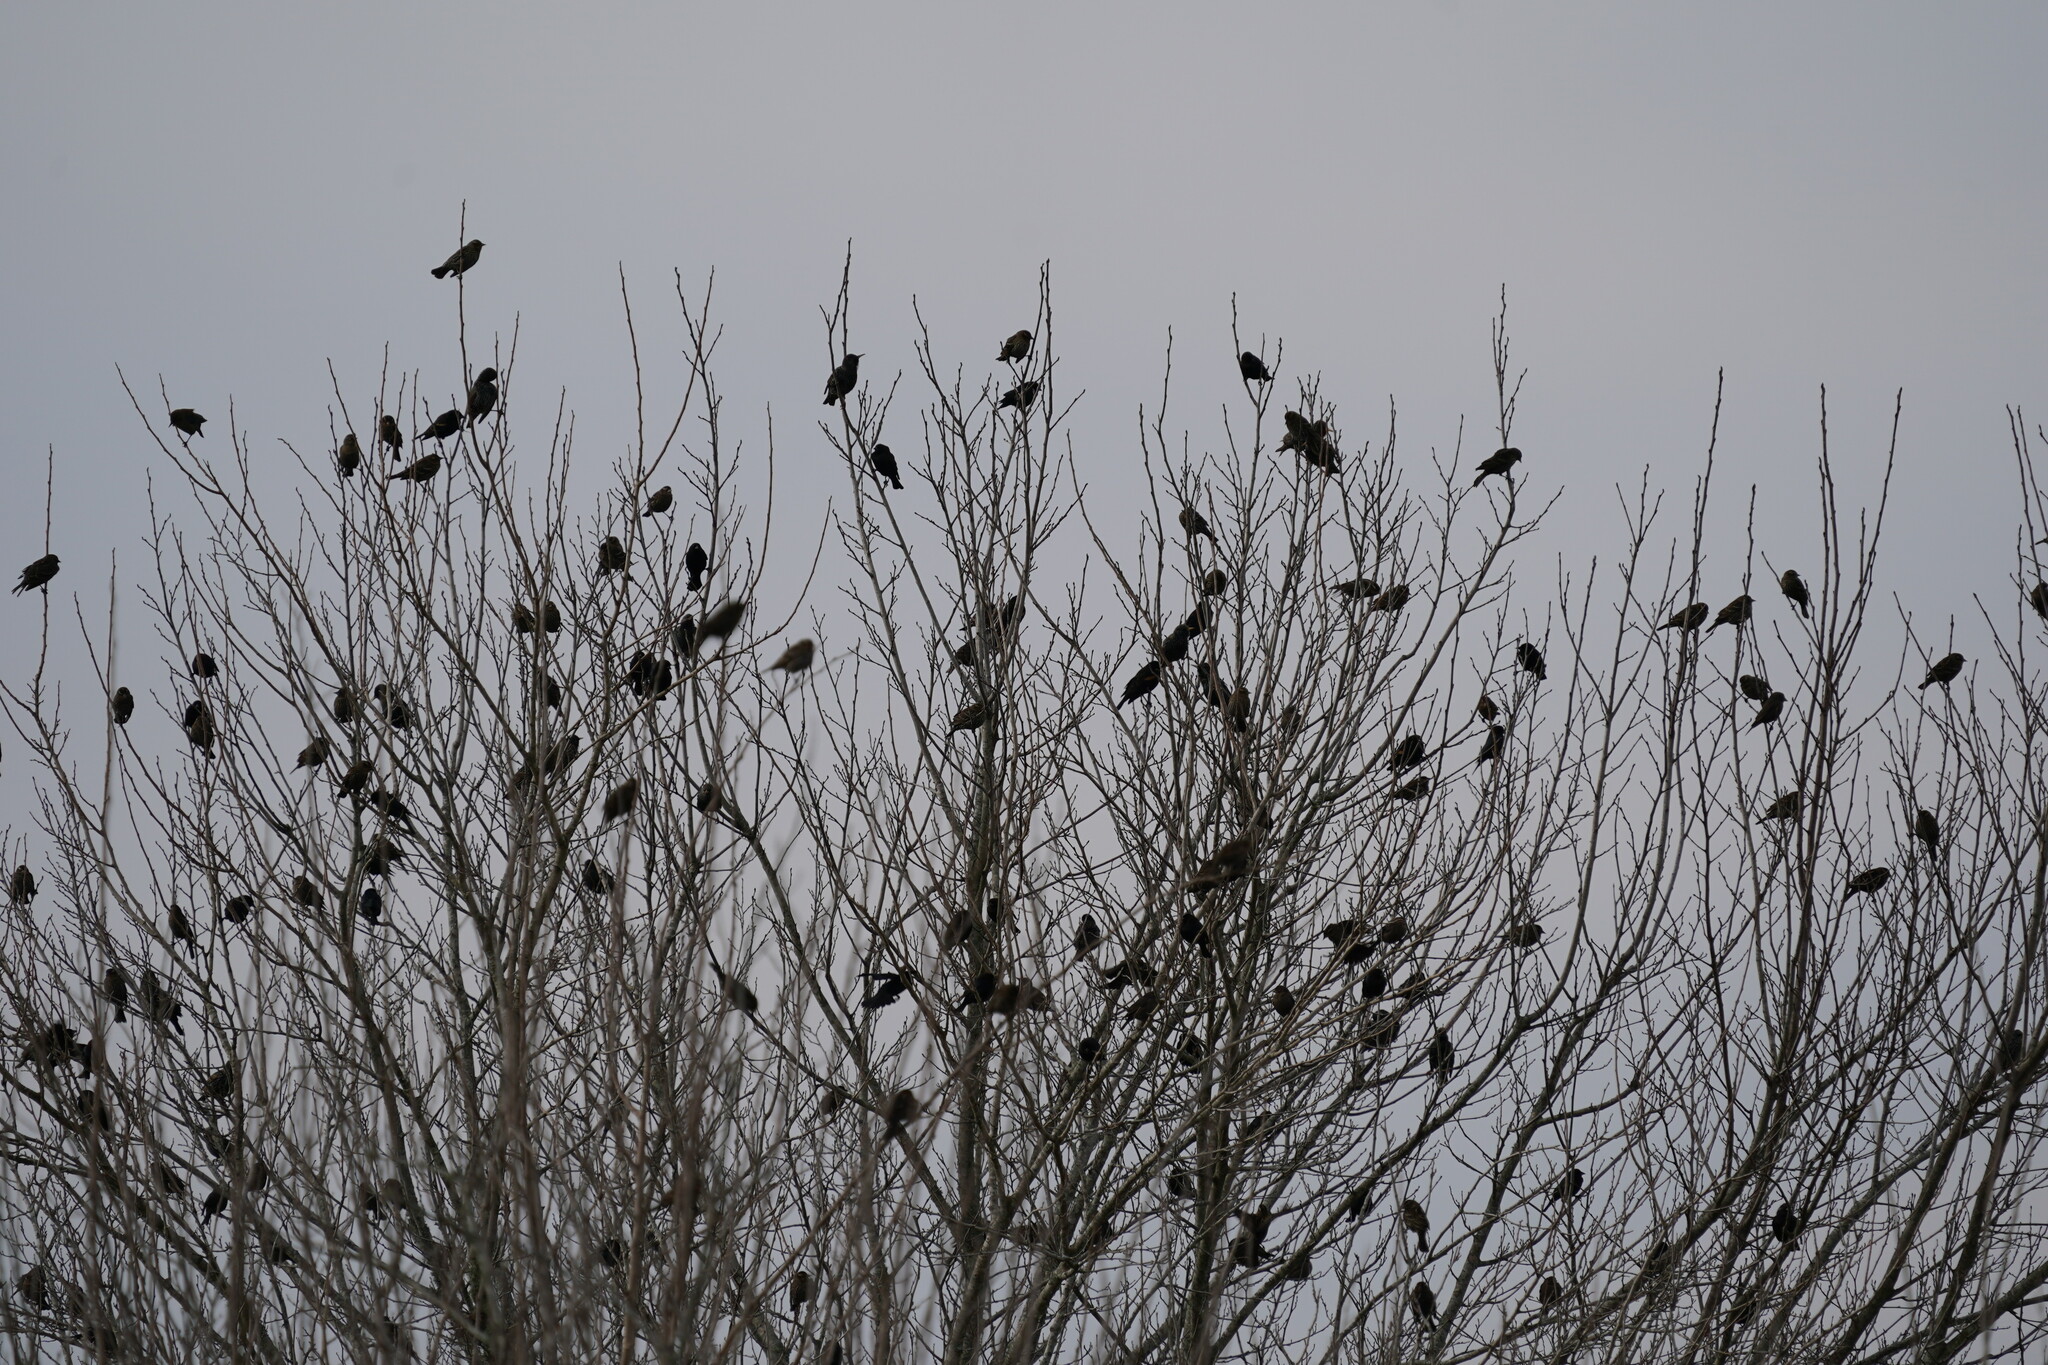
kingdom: Animalia
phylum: Chordata
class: Aves
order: Passeriformes
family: Sturnidae
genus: Sturnus
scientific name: Sturnus vulgaris
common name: Common starling
